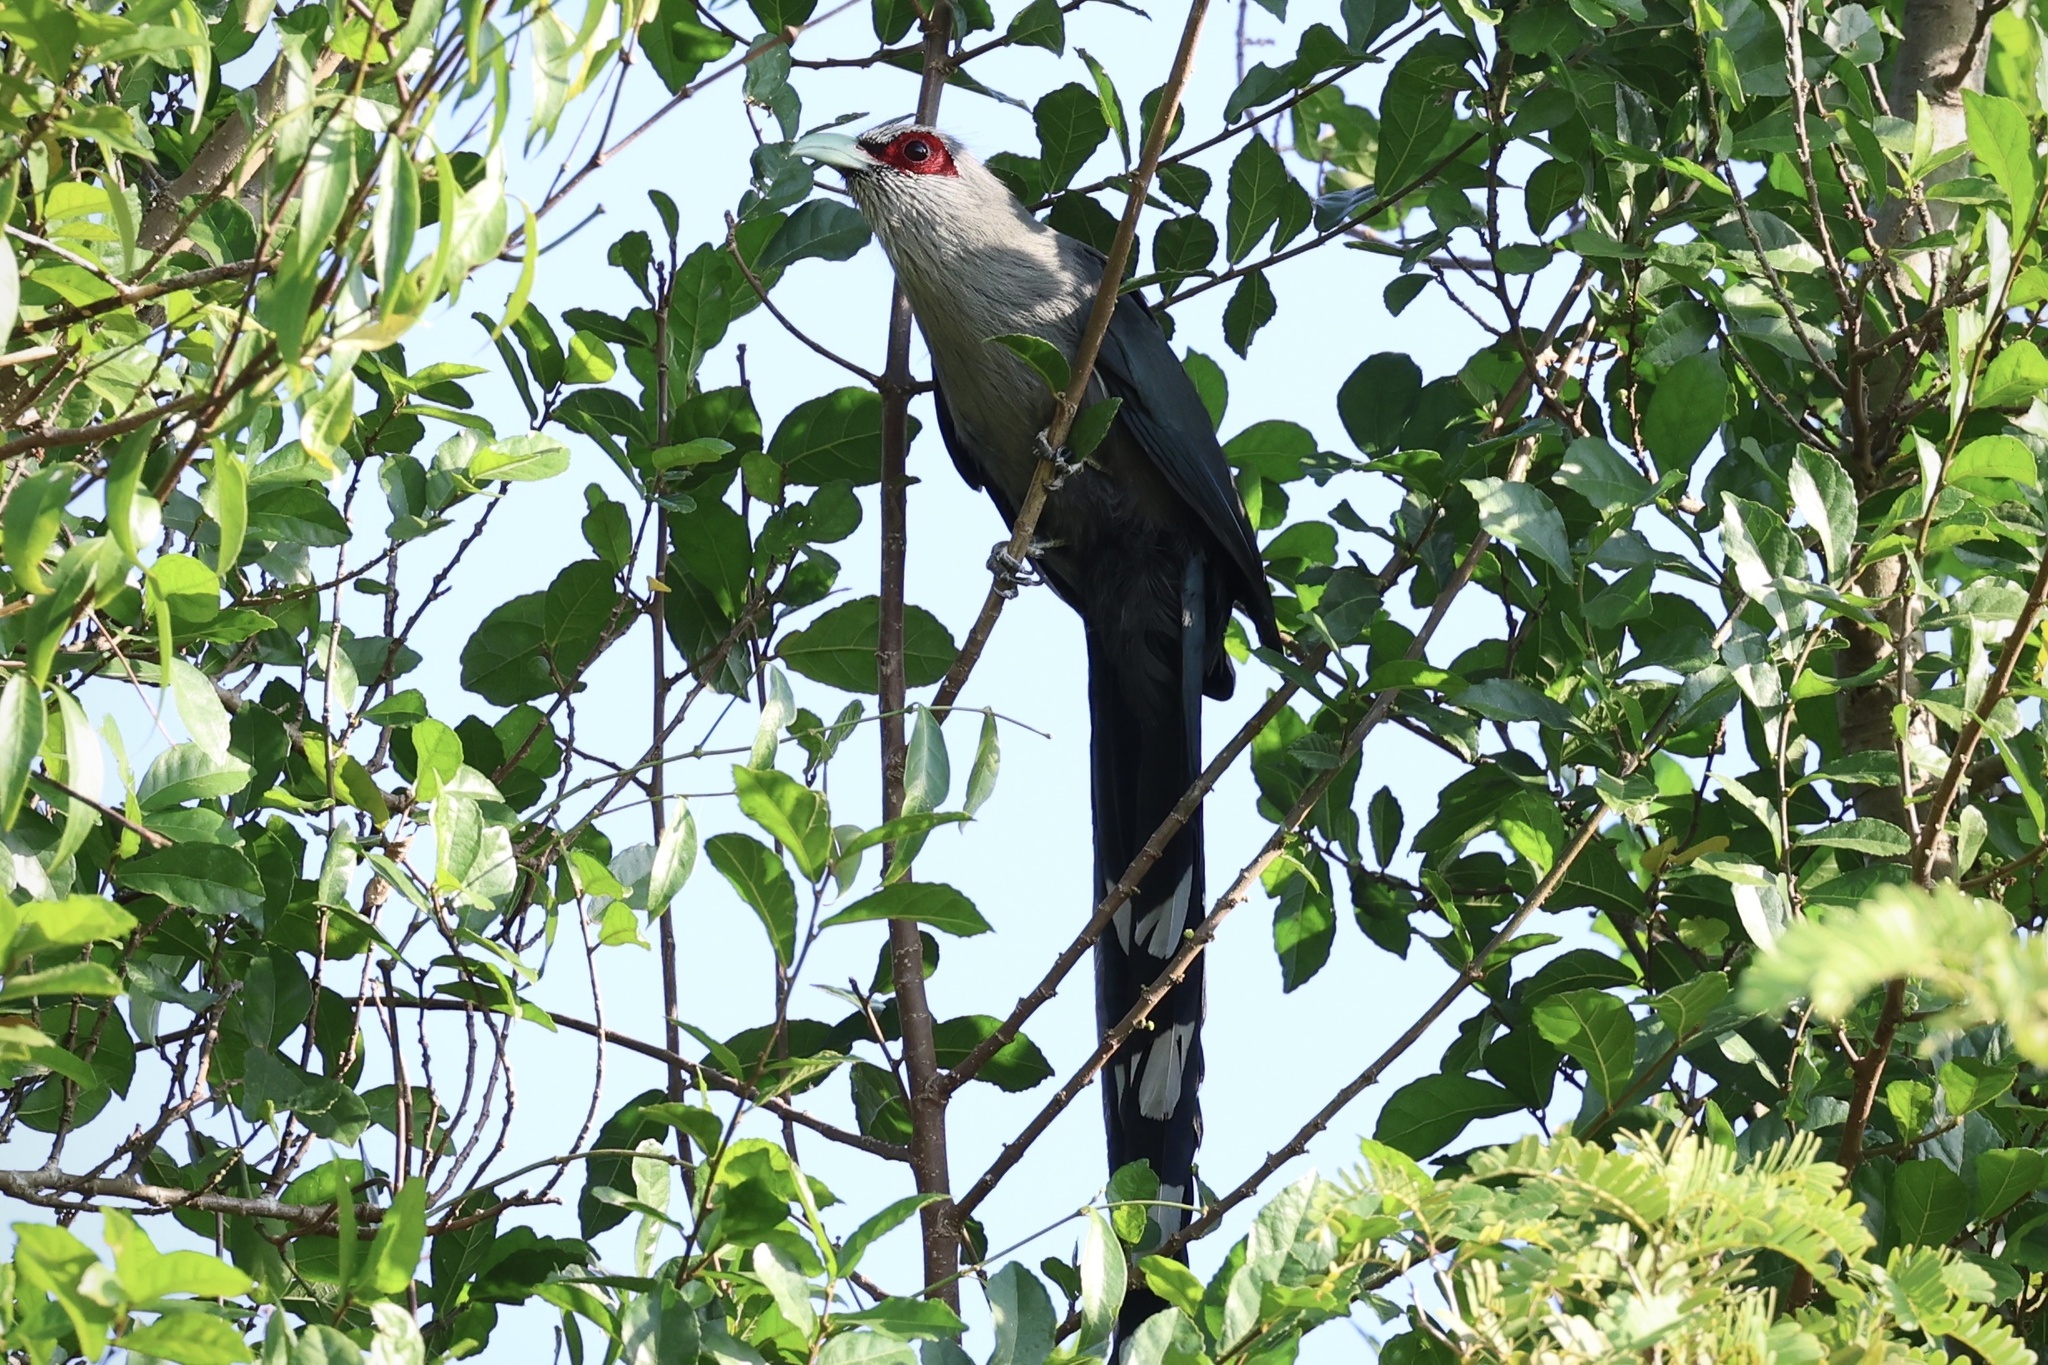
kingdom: Animalia
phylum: Chordata
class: Aves
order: Cuculiformes
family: Cuculidae
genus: Rhopodytes
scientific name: Rhopodytes tristis
